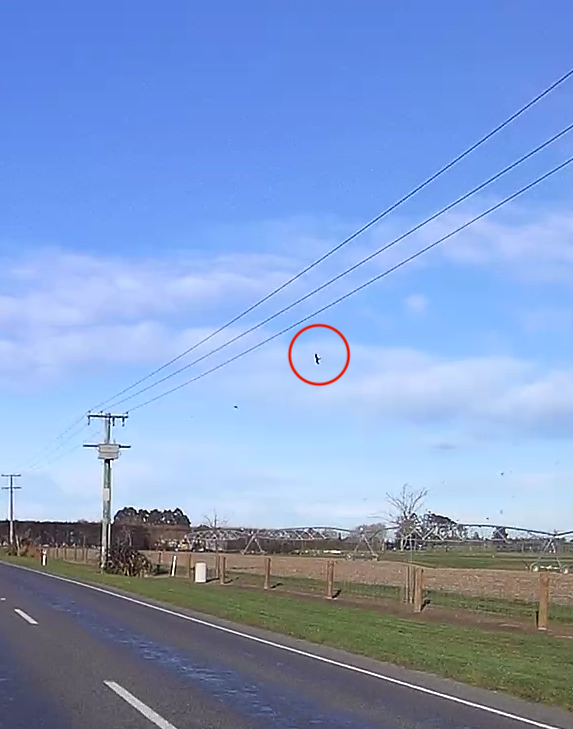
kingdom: Animalia
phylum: Chordata
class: Aves
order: Accipitriformes
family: Accipitridae
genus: Circus
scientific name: Circus approximans
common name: Swamp harrier
